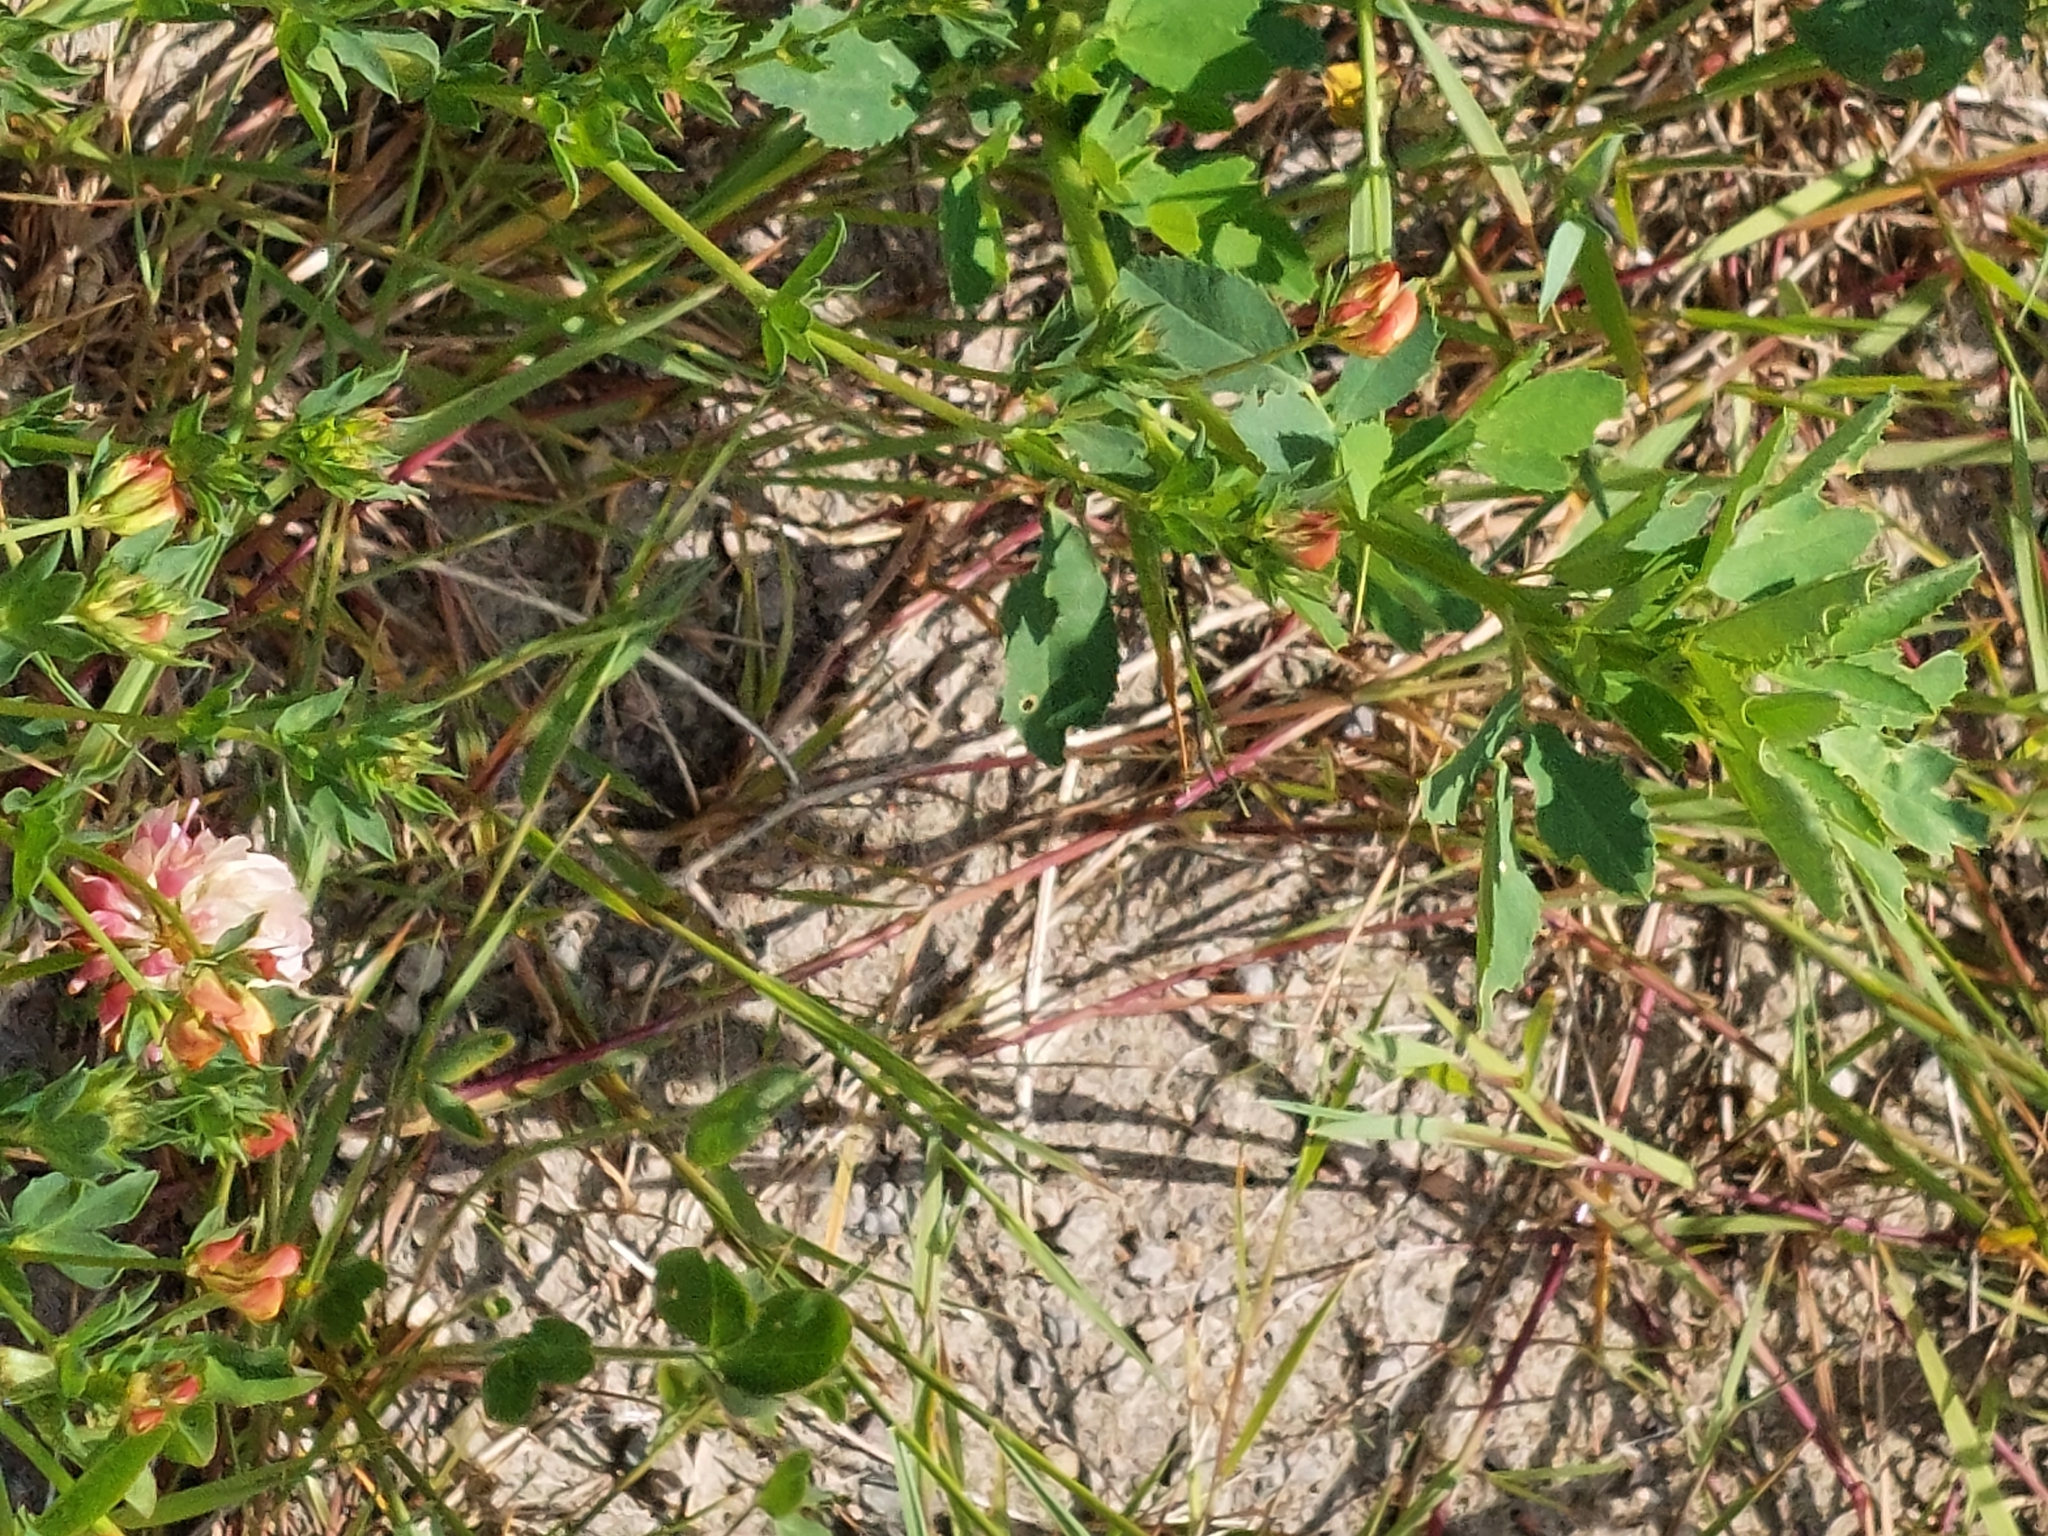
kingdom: Plantae
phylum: Tracheophyta
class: Magnoliopsida
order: Fabales
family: Fabaceae
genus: Lotus
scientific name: Lotus corniculatus
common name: Common bird's-foot-trefoil
